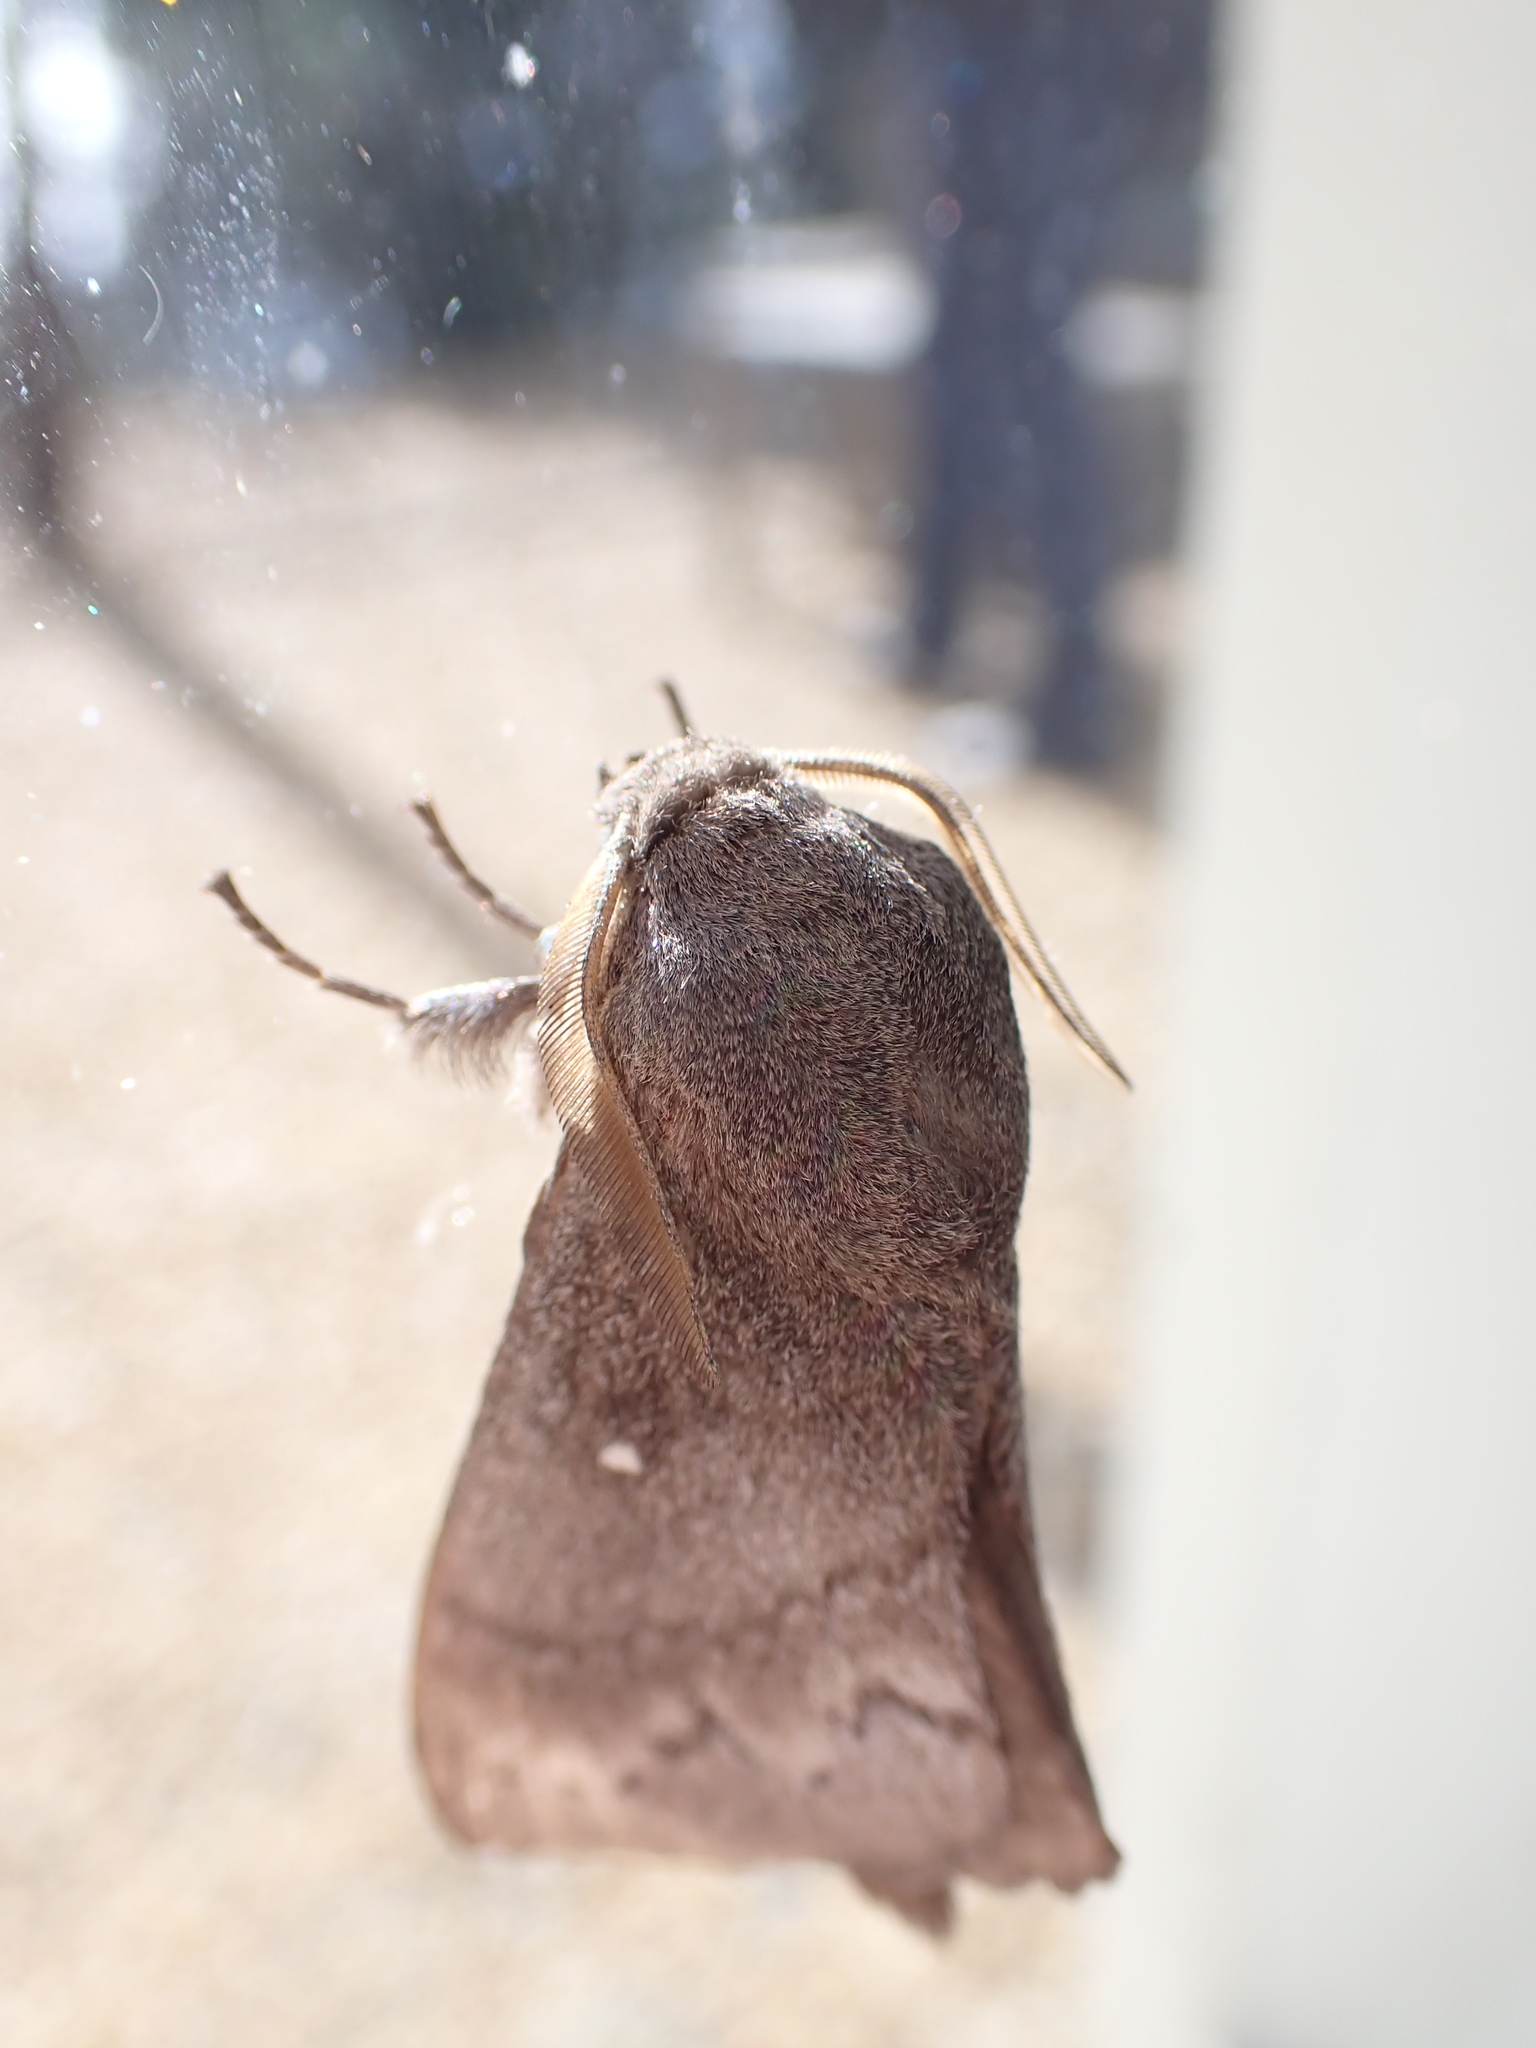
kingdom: Animalia
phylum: Arthropoda
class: Insecta
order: Lepidoptera
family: Lasiocampidae
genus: Dendrolimus
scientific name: Dendrolimus pini
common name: Pine-tree lappet
